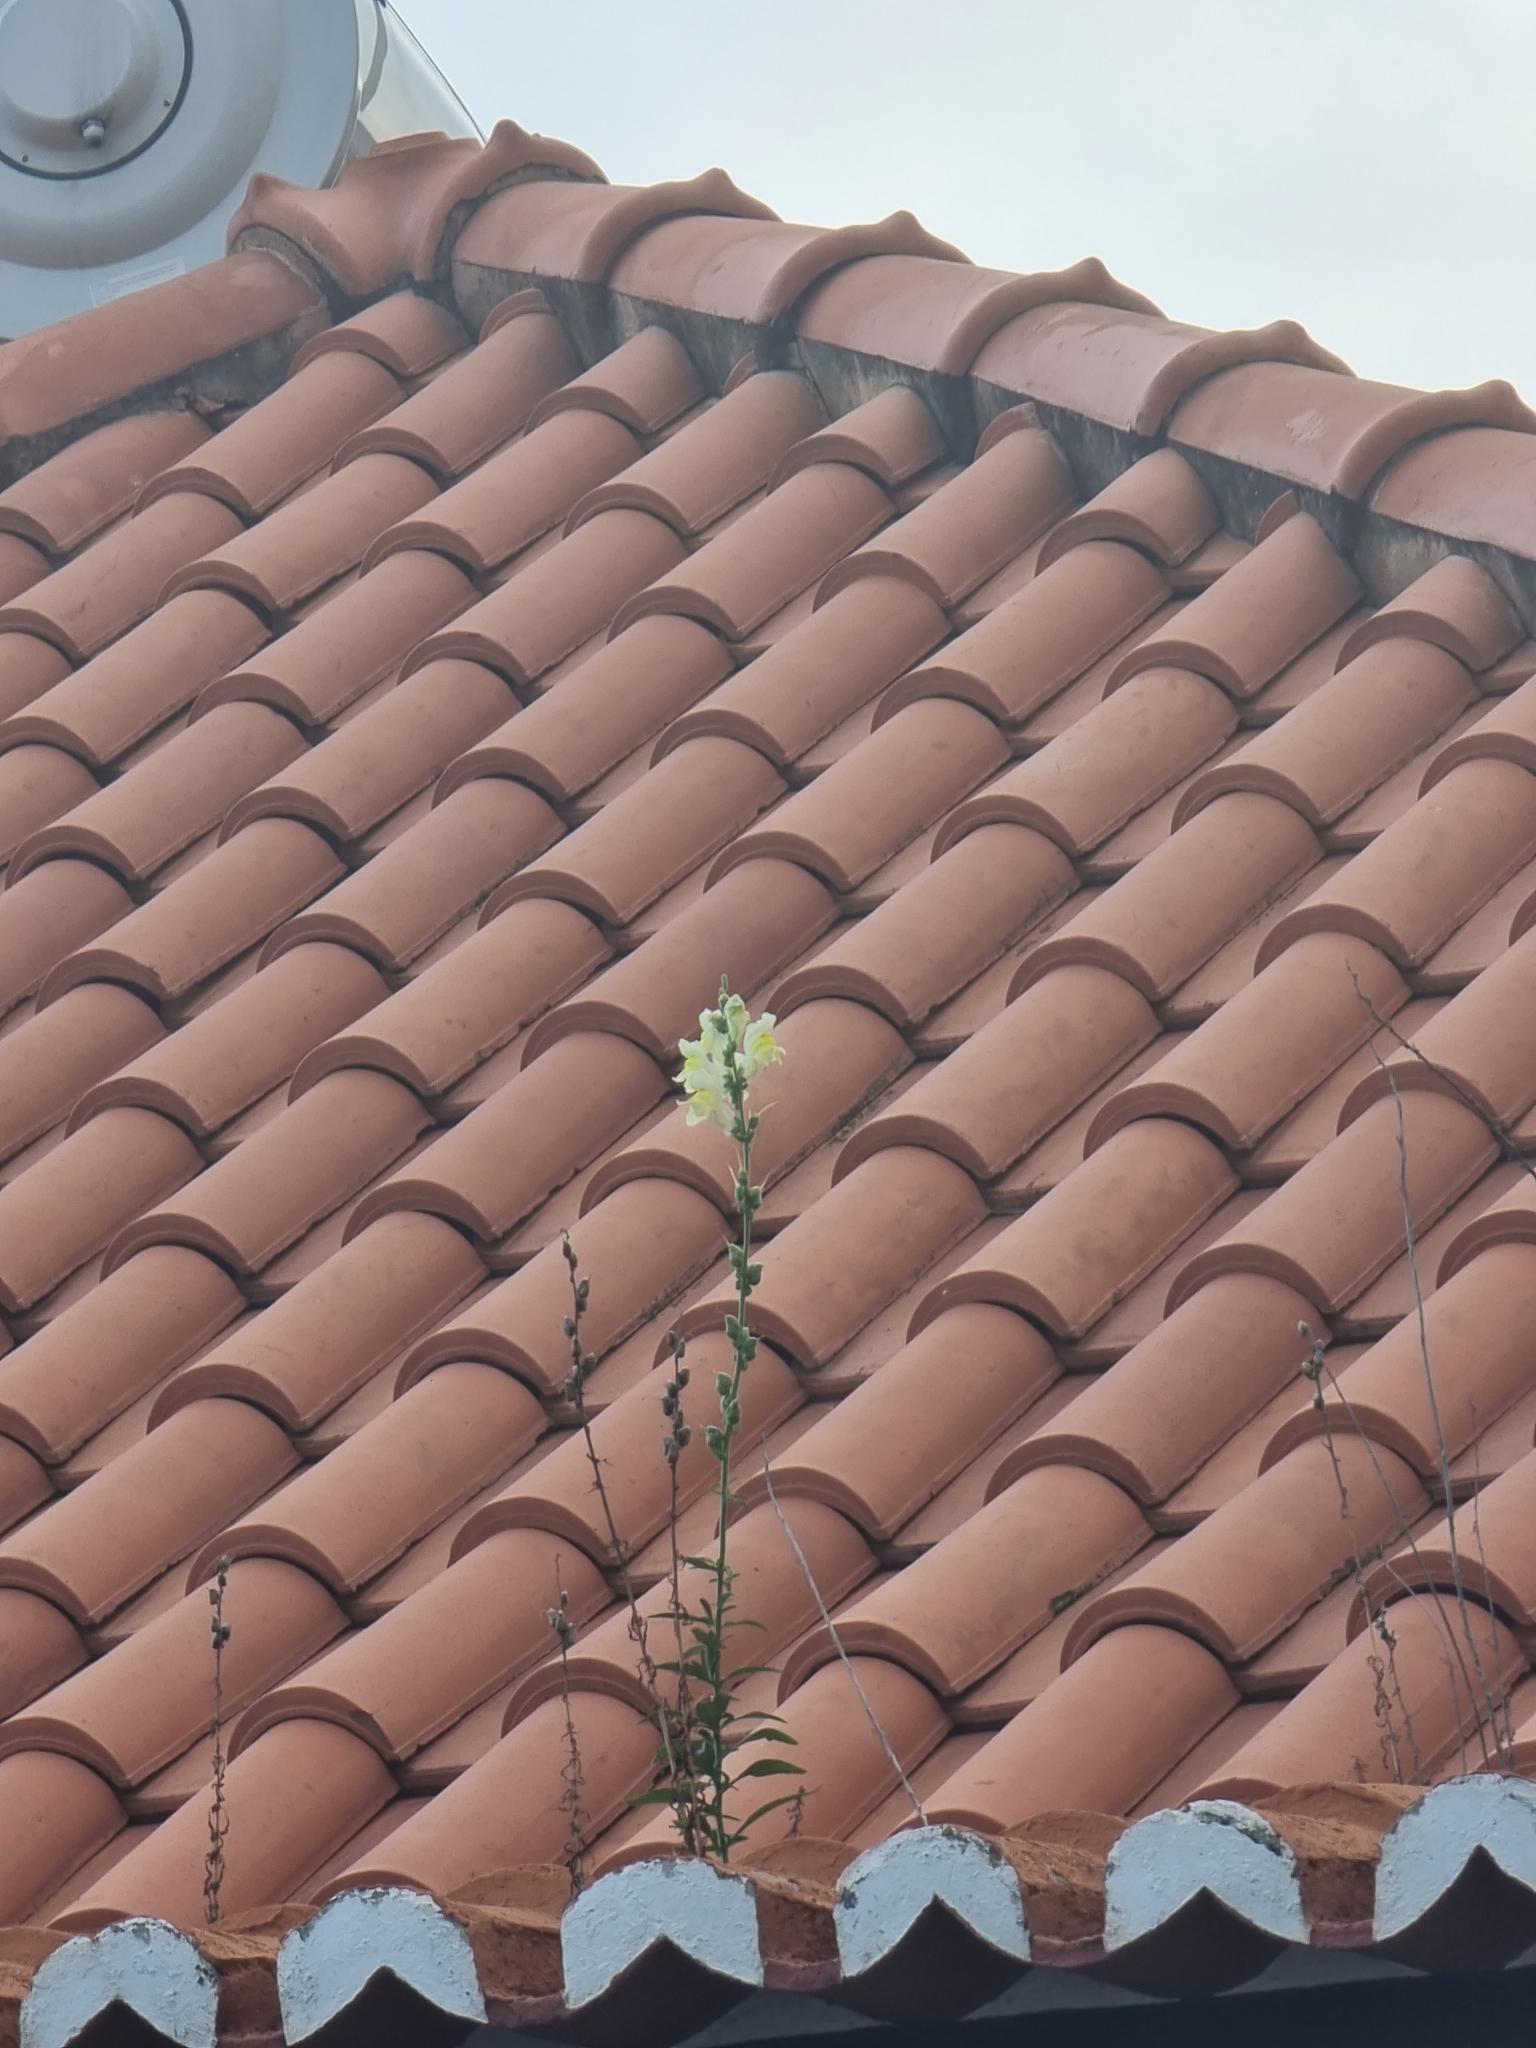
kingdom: Plantae
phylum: Tracheophyta
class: Magnoliopsida
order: Lamiales
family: Plantaginaceae
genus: Antirrhinum
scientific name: Antirrhinum majus
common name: Snapdragon
